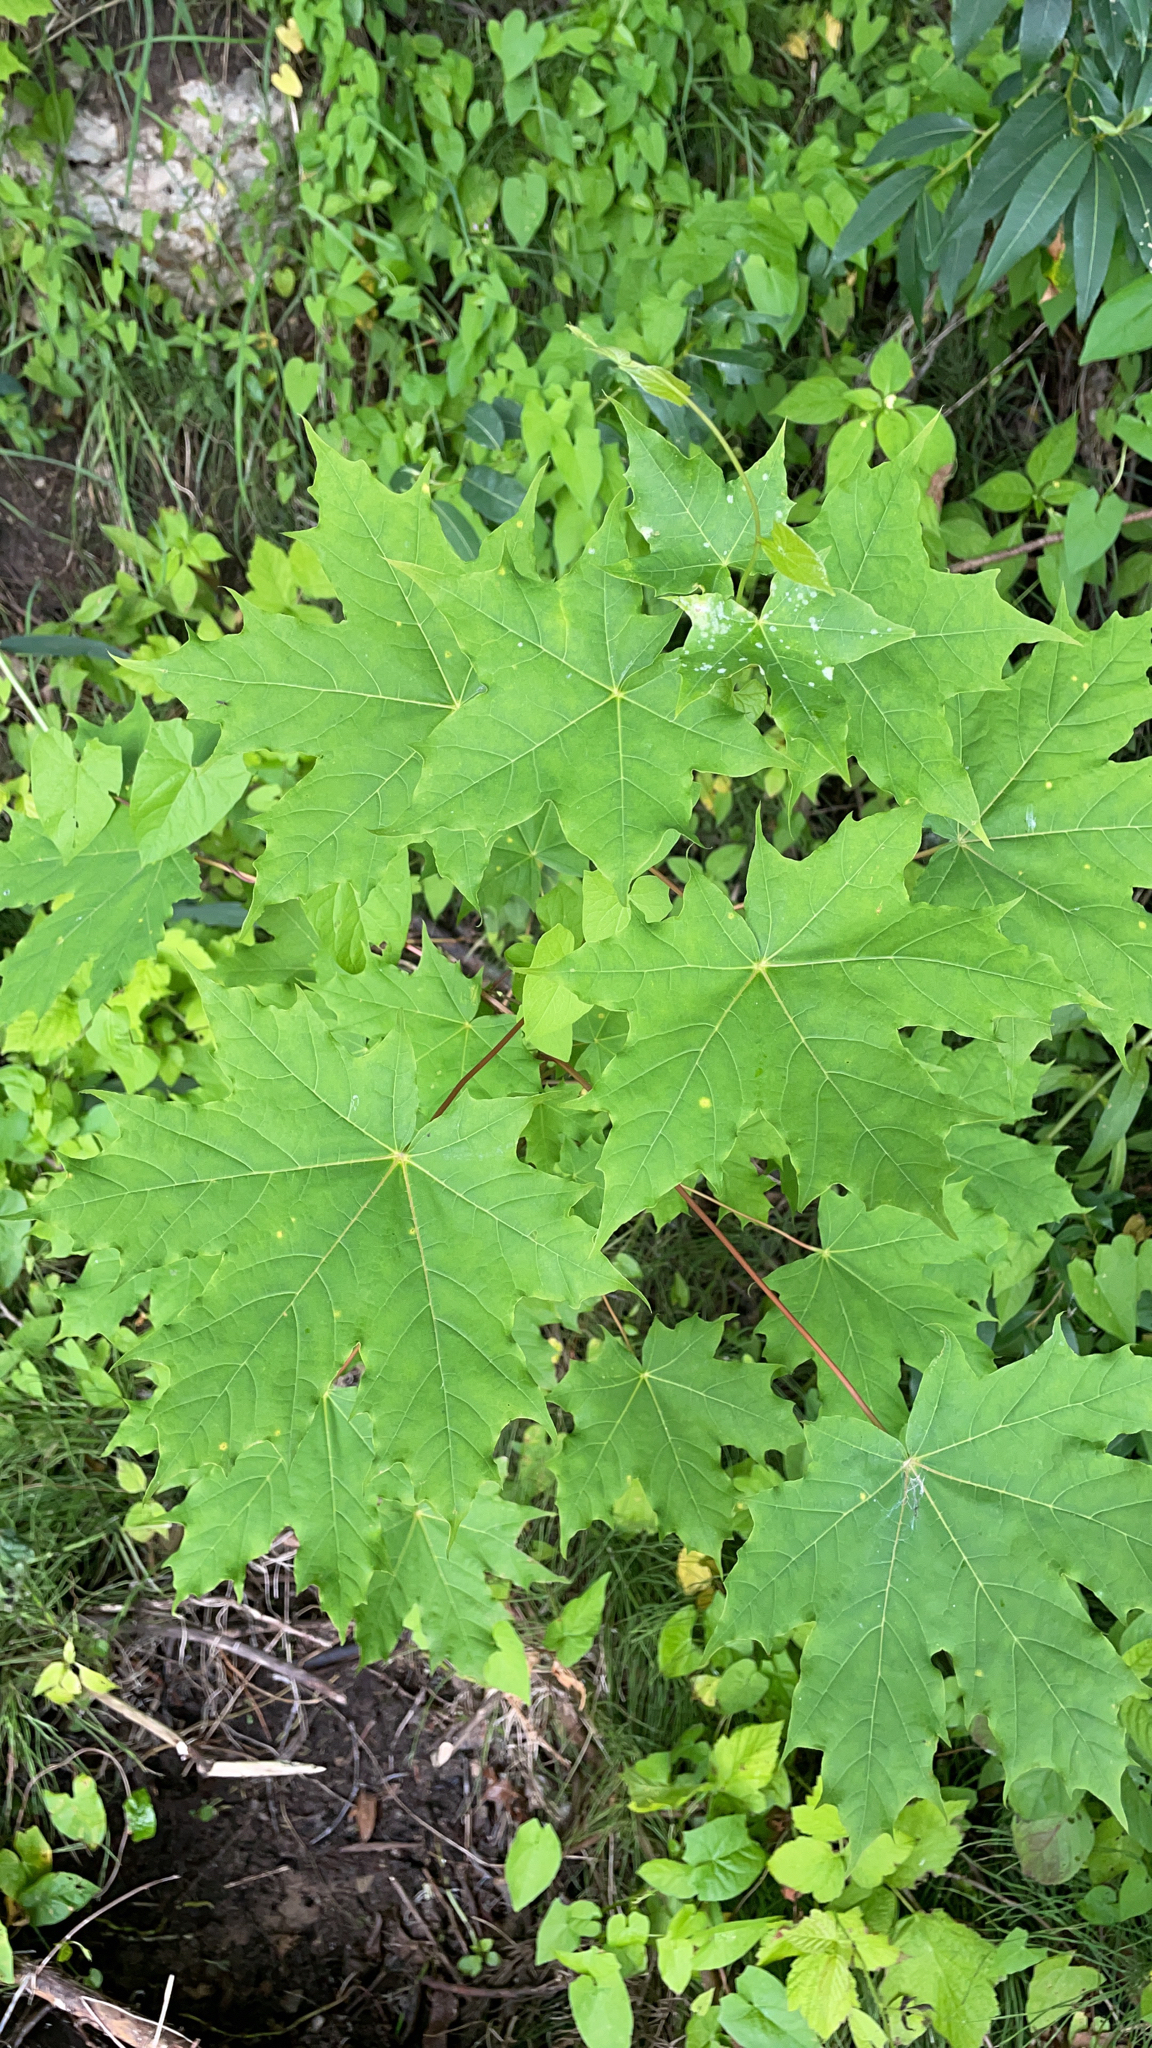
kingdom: Plantae
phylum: Tracheophyta
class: Magnoliopsida
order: Sapindales
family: Sapindaceae
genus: Acer
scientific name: Acer platanoides
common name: Norway maple
